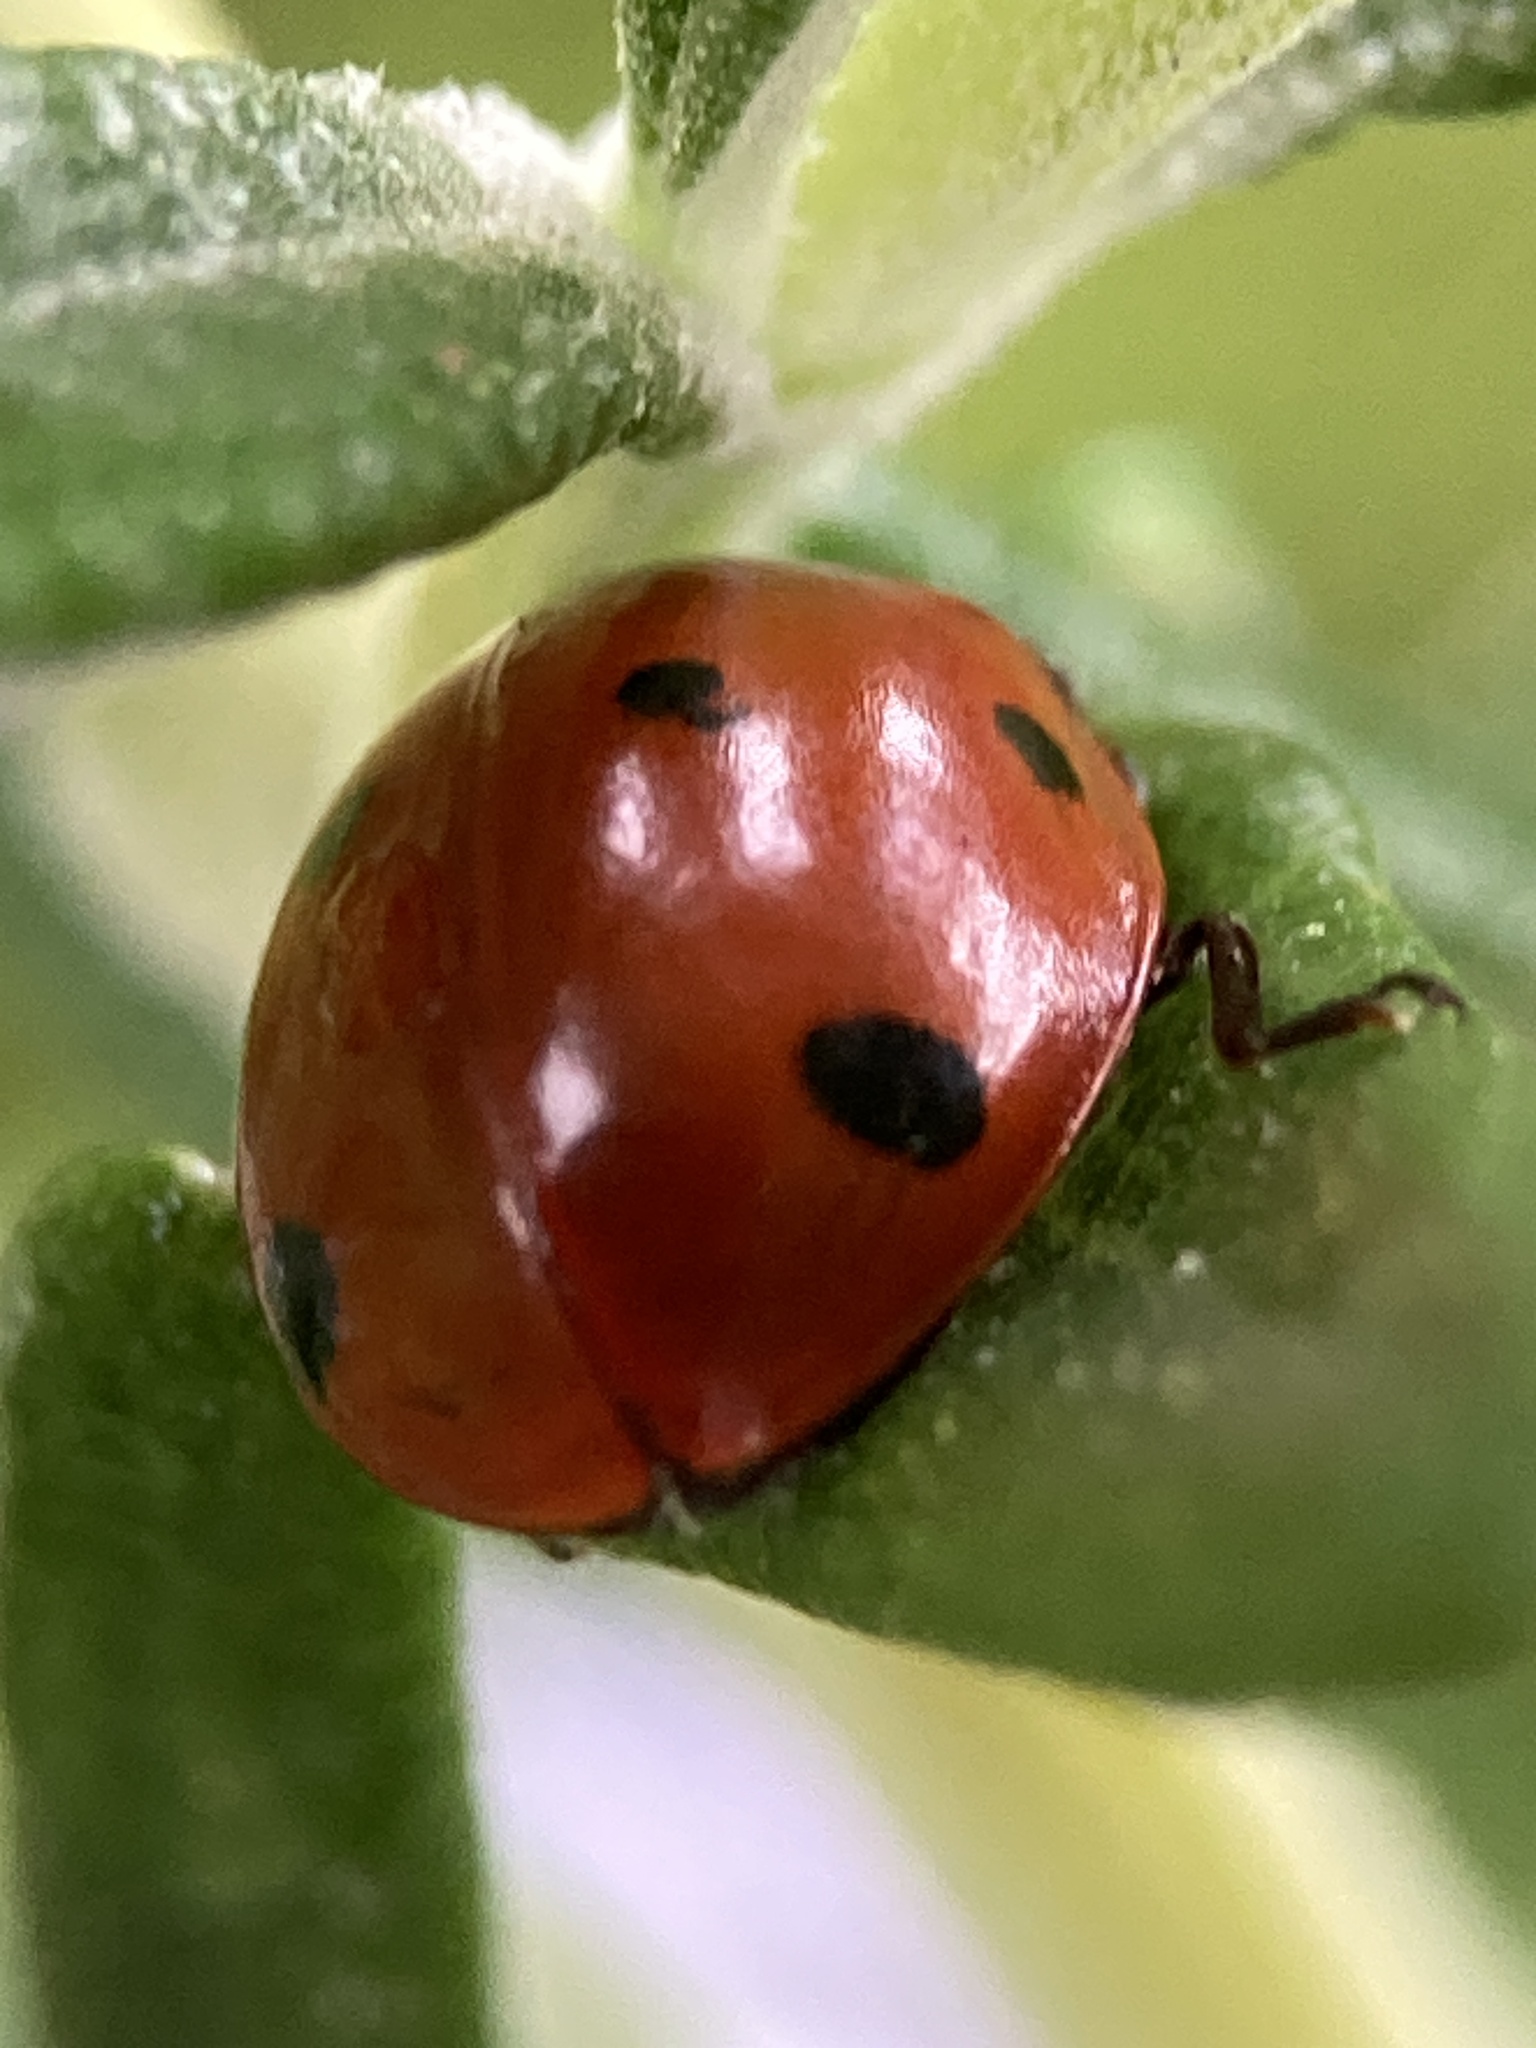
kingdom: Animalia
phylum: Arthropoda
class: Insecta
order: Coleoptera
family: Coccinellidae
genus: Coccinella
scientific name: Coccinella septempunctata
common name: Sevenspotted lady beetle
